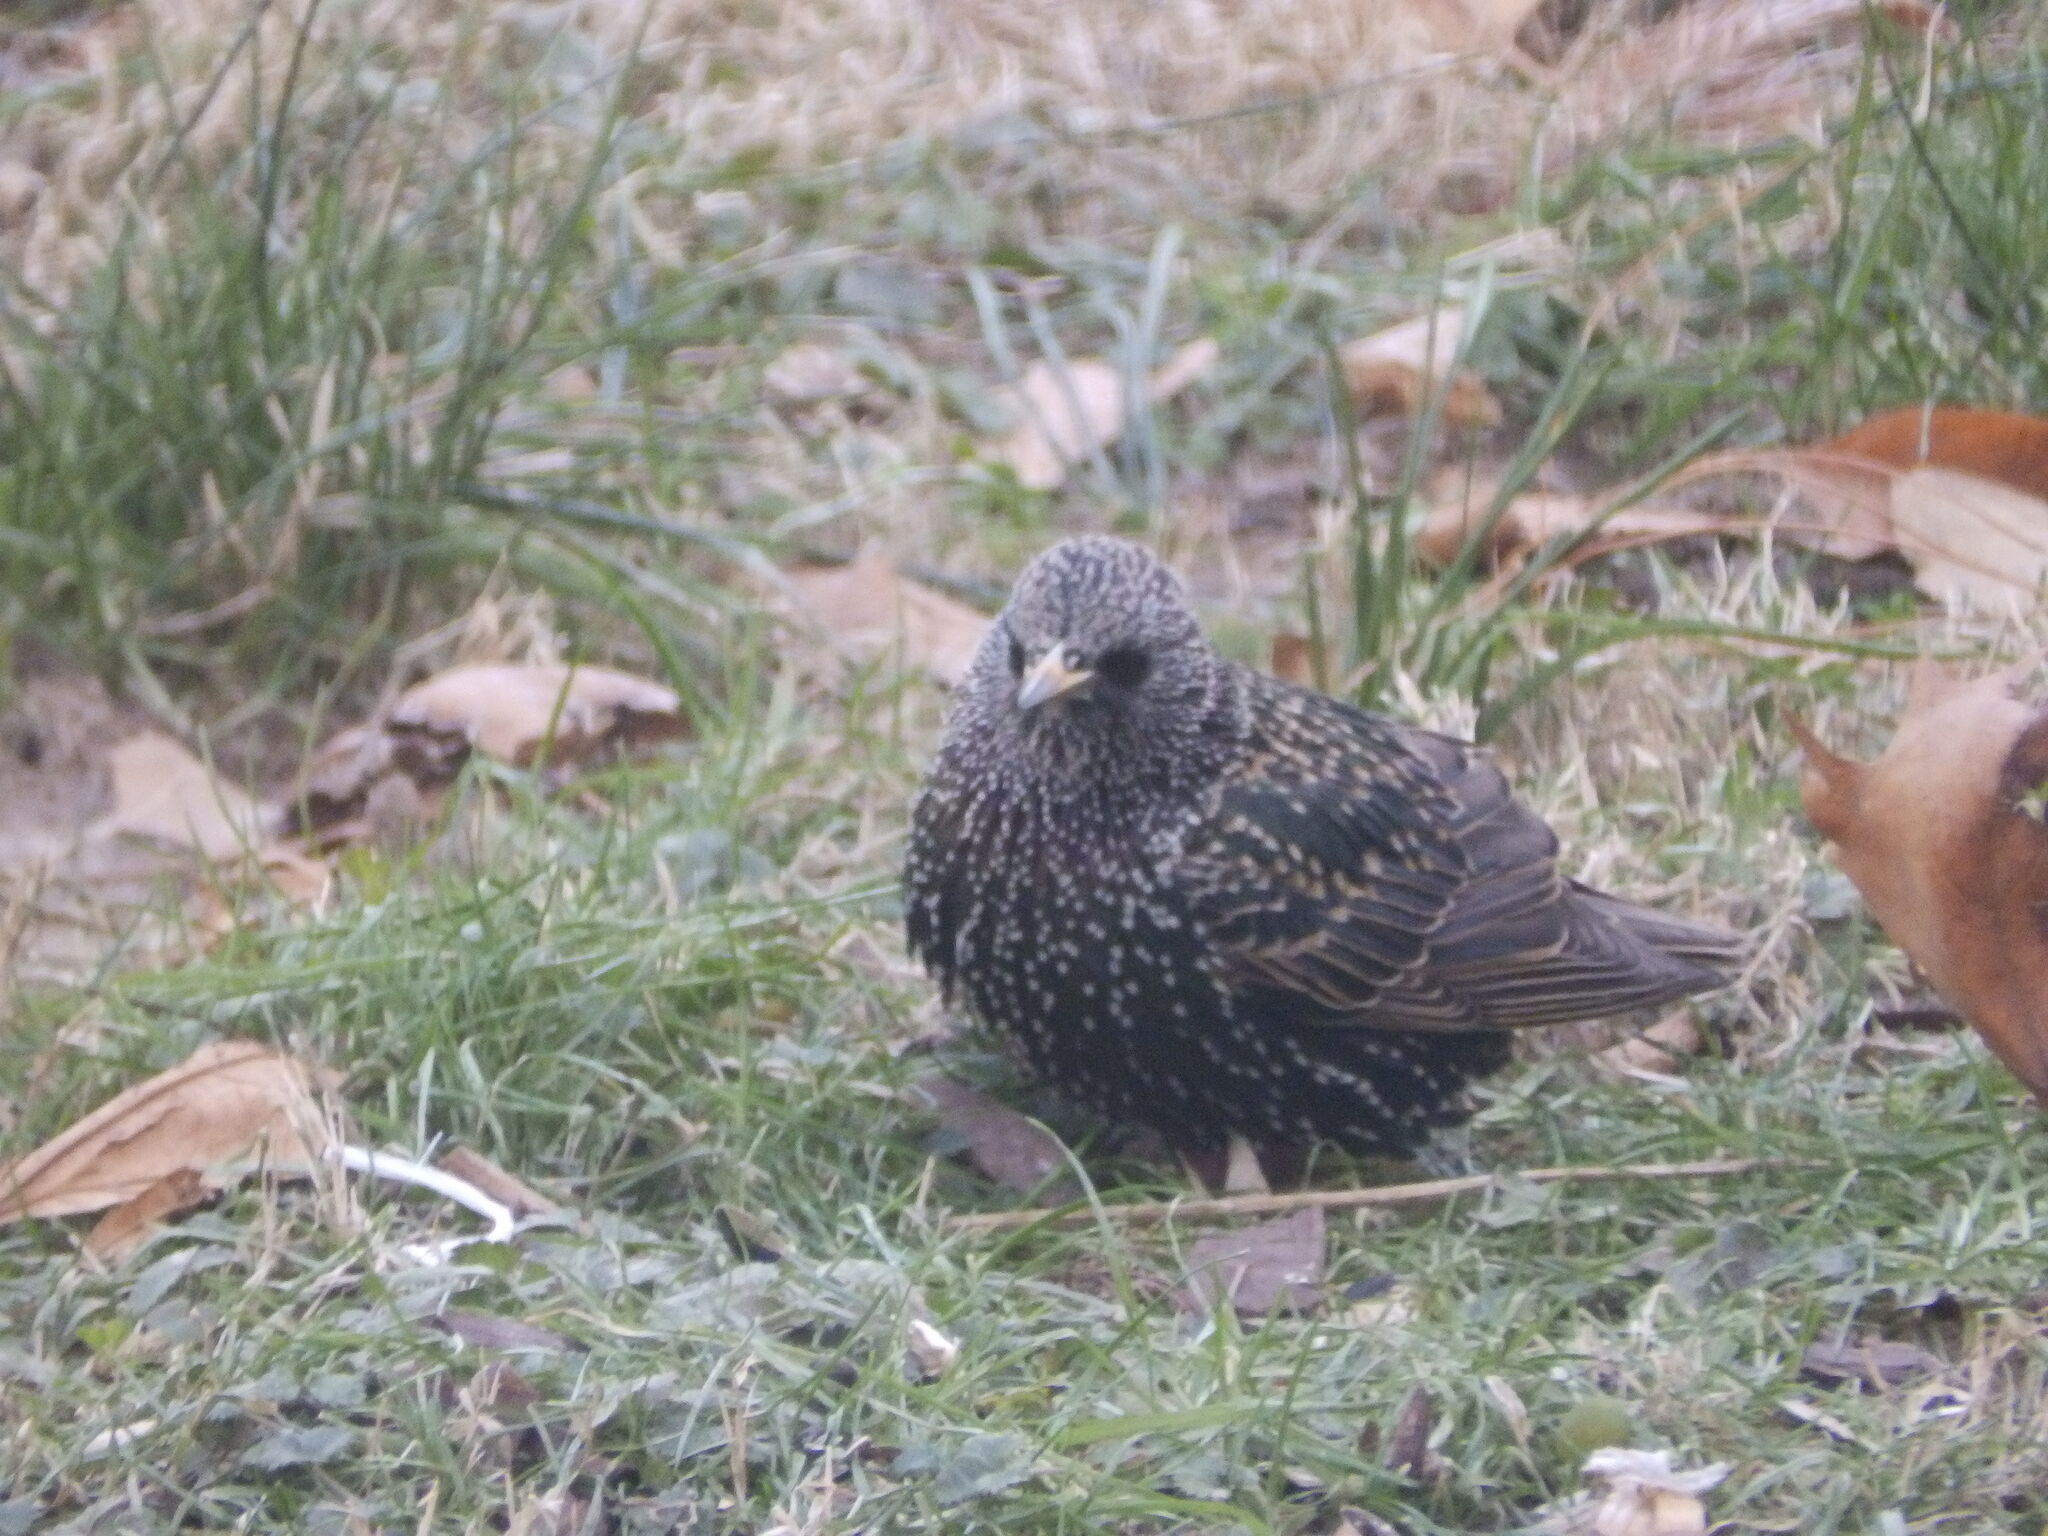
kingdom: Animalia
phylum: Chordata
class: Aves
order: Passeriformes
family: Sturnidae
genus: Sturnus
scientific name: Sturnus vulgaris
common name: Common starling
